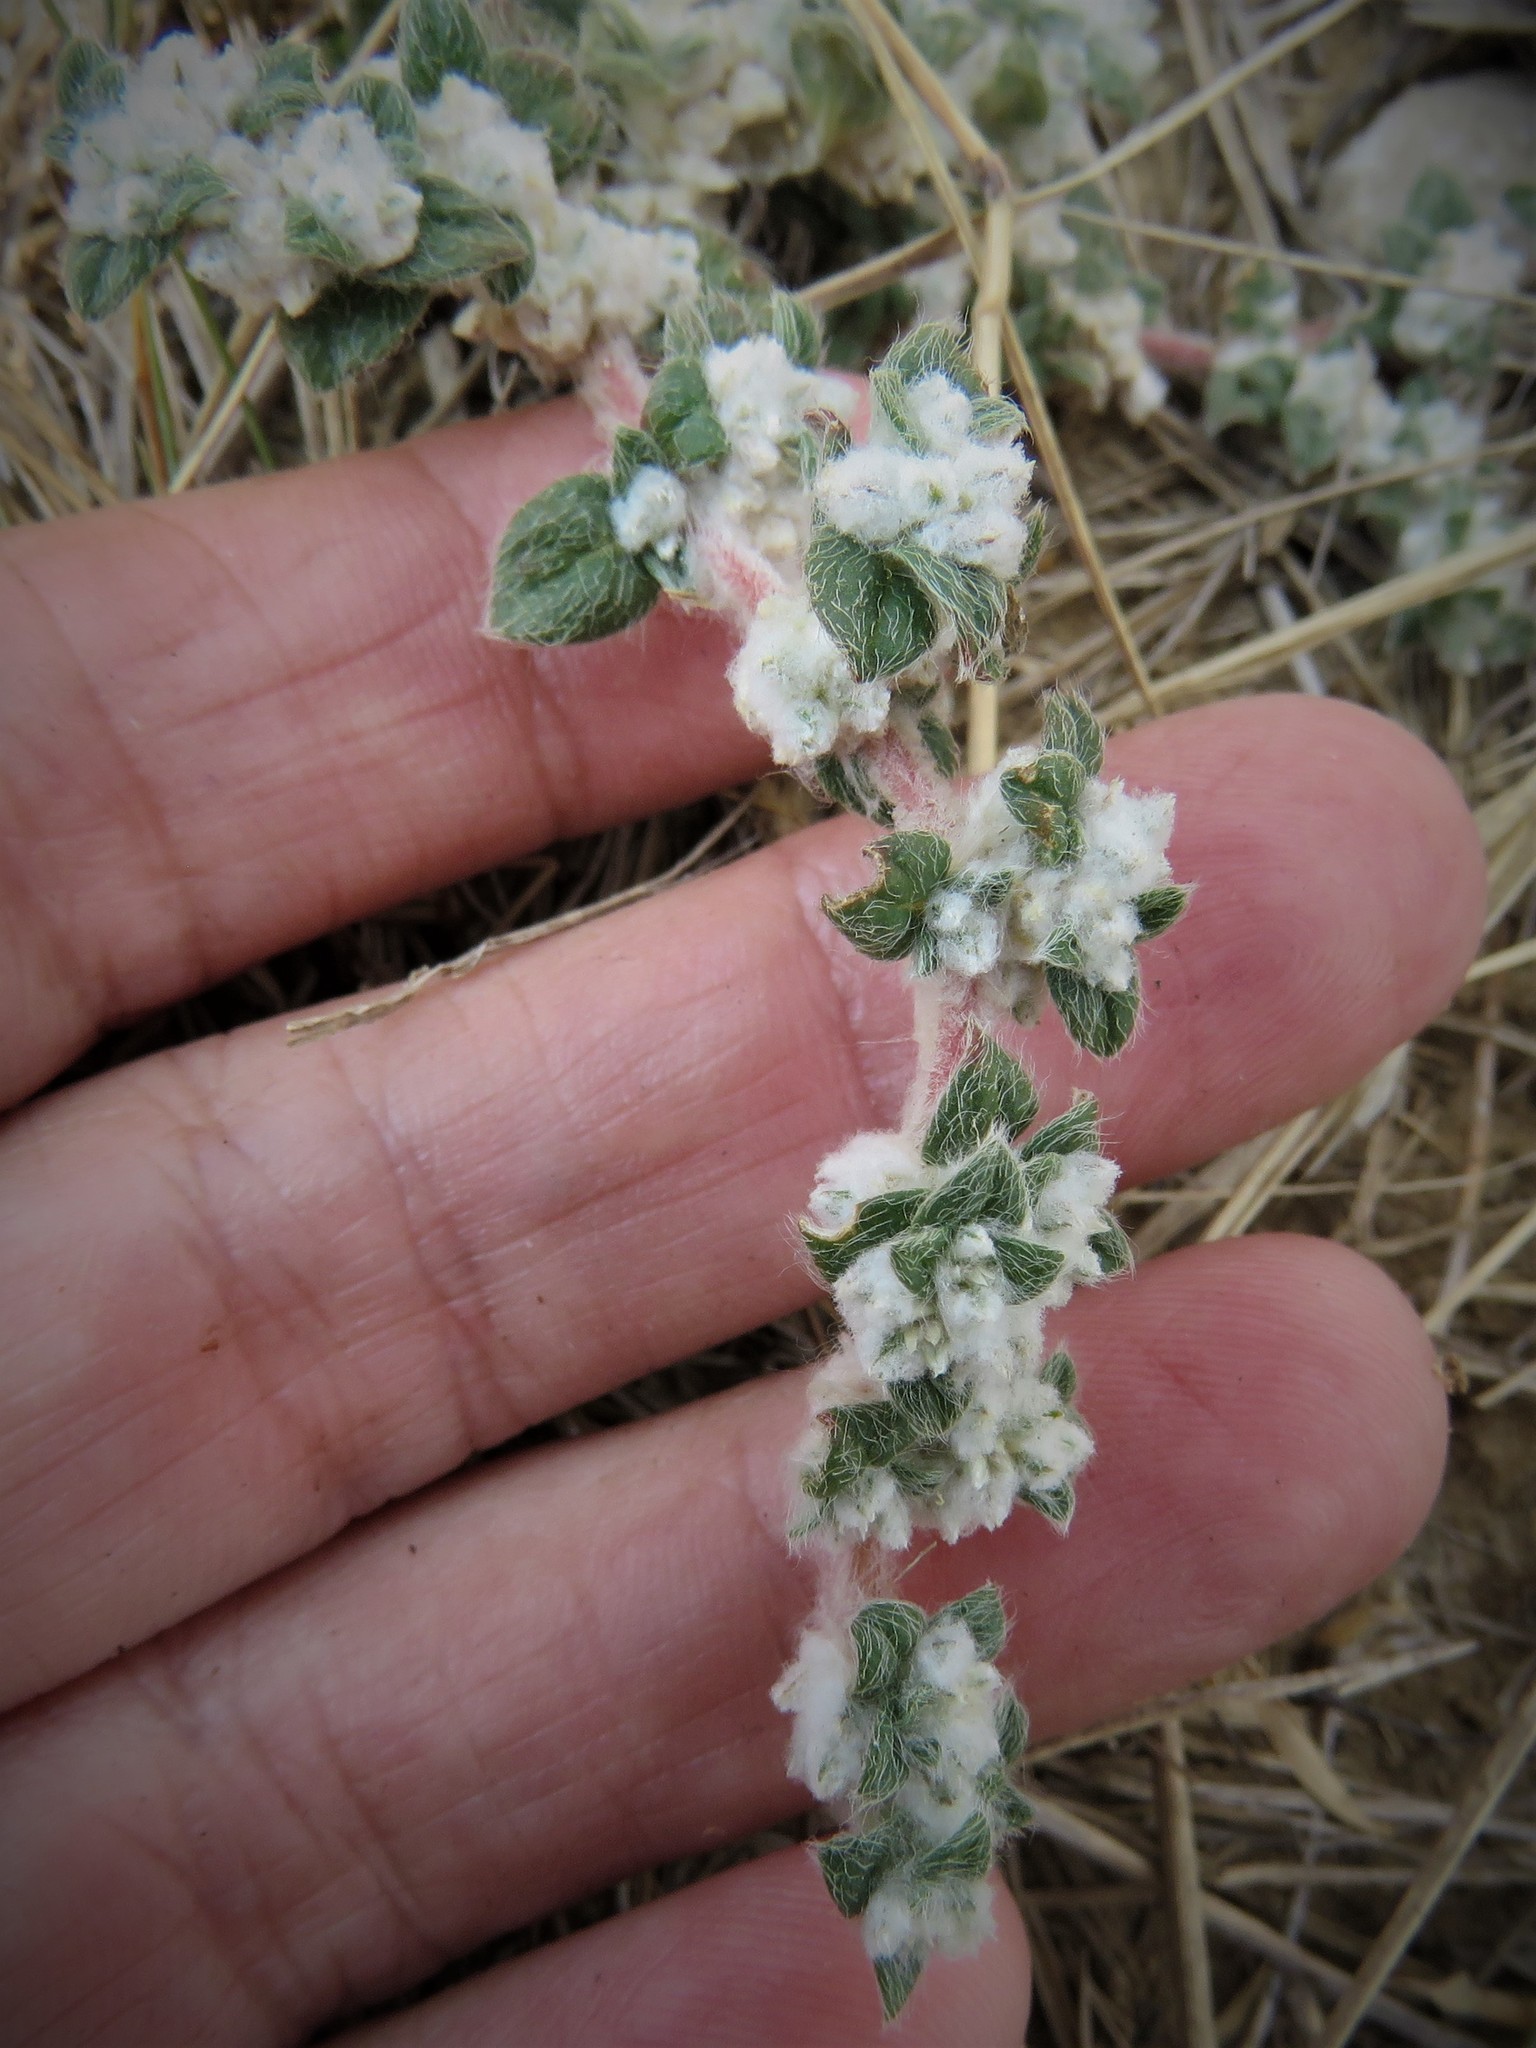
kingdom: Plantae
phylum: Tracheophyta
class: Magnoliopsida
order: Caryophyllales
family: Amaranthaceae
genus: Gomphrena
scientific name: Gomphrena lanuparonychioides
